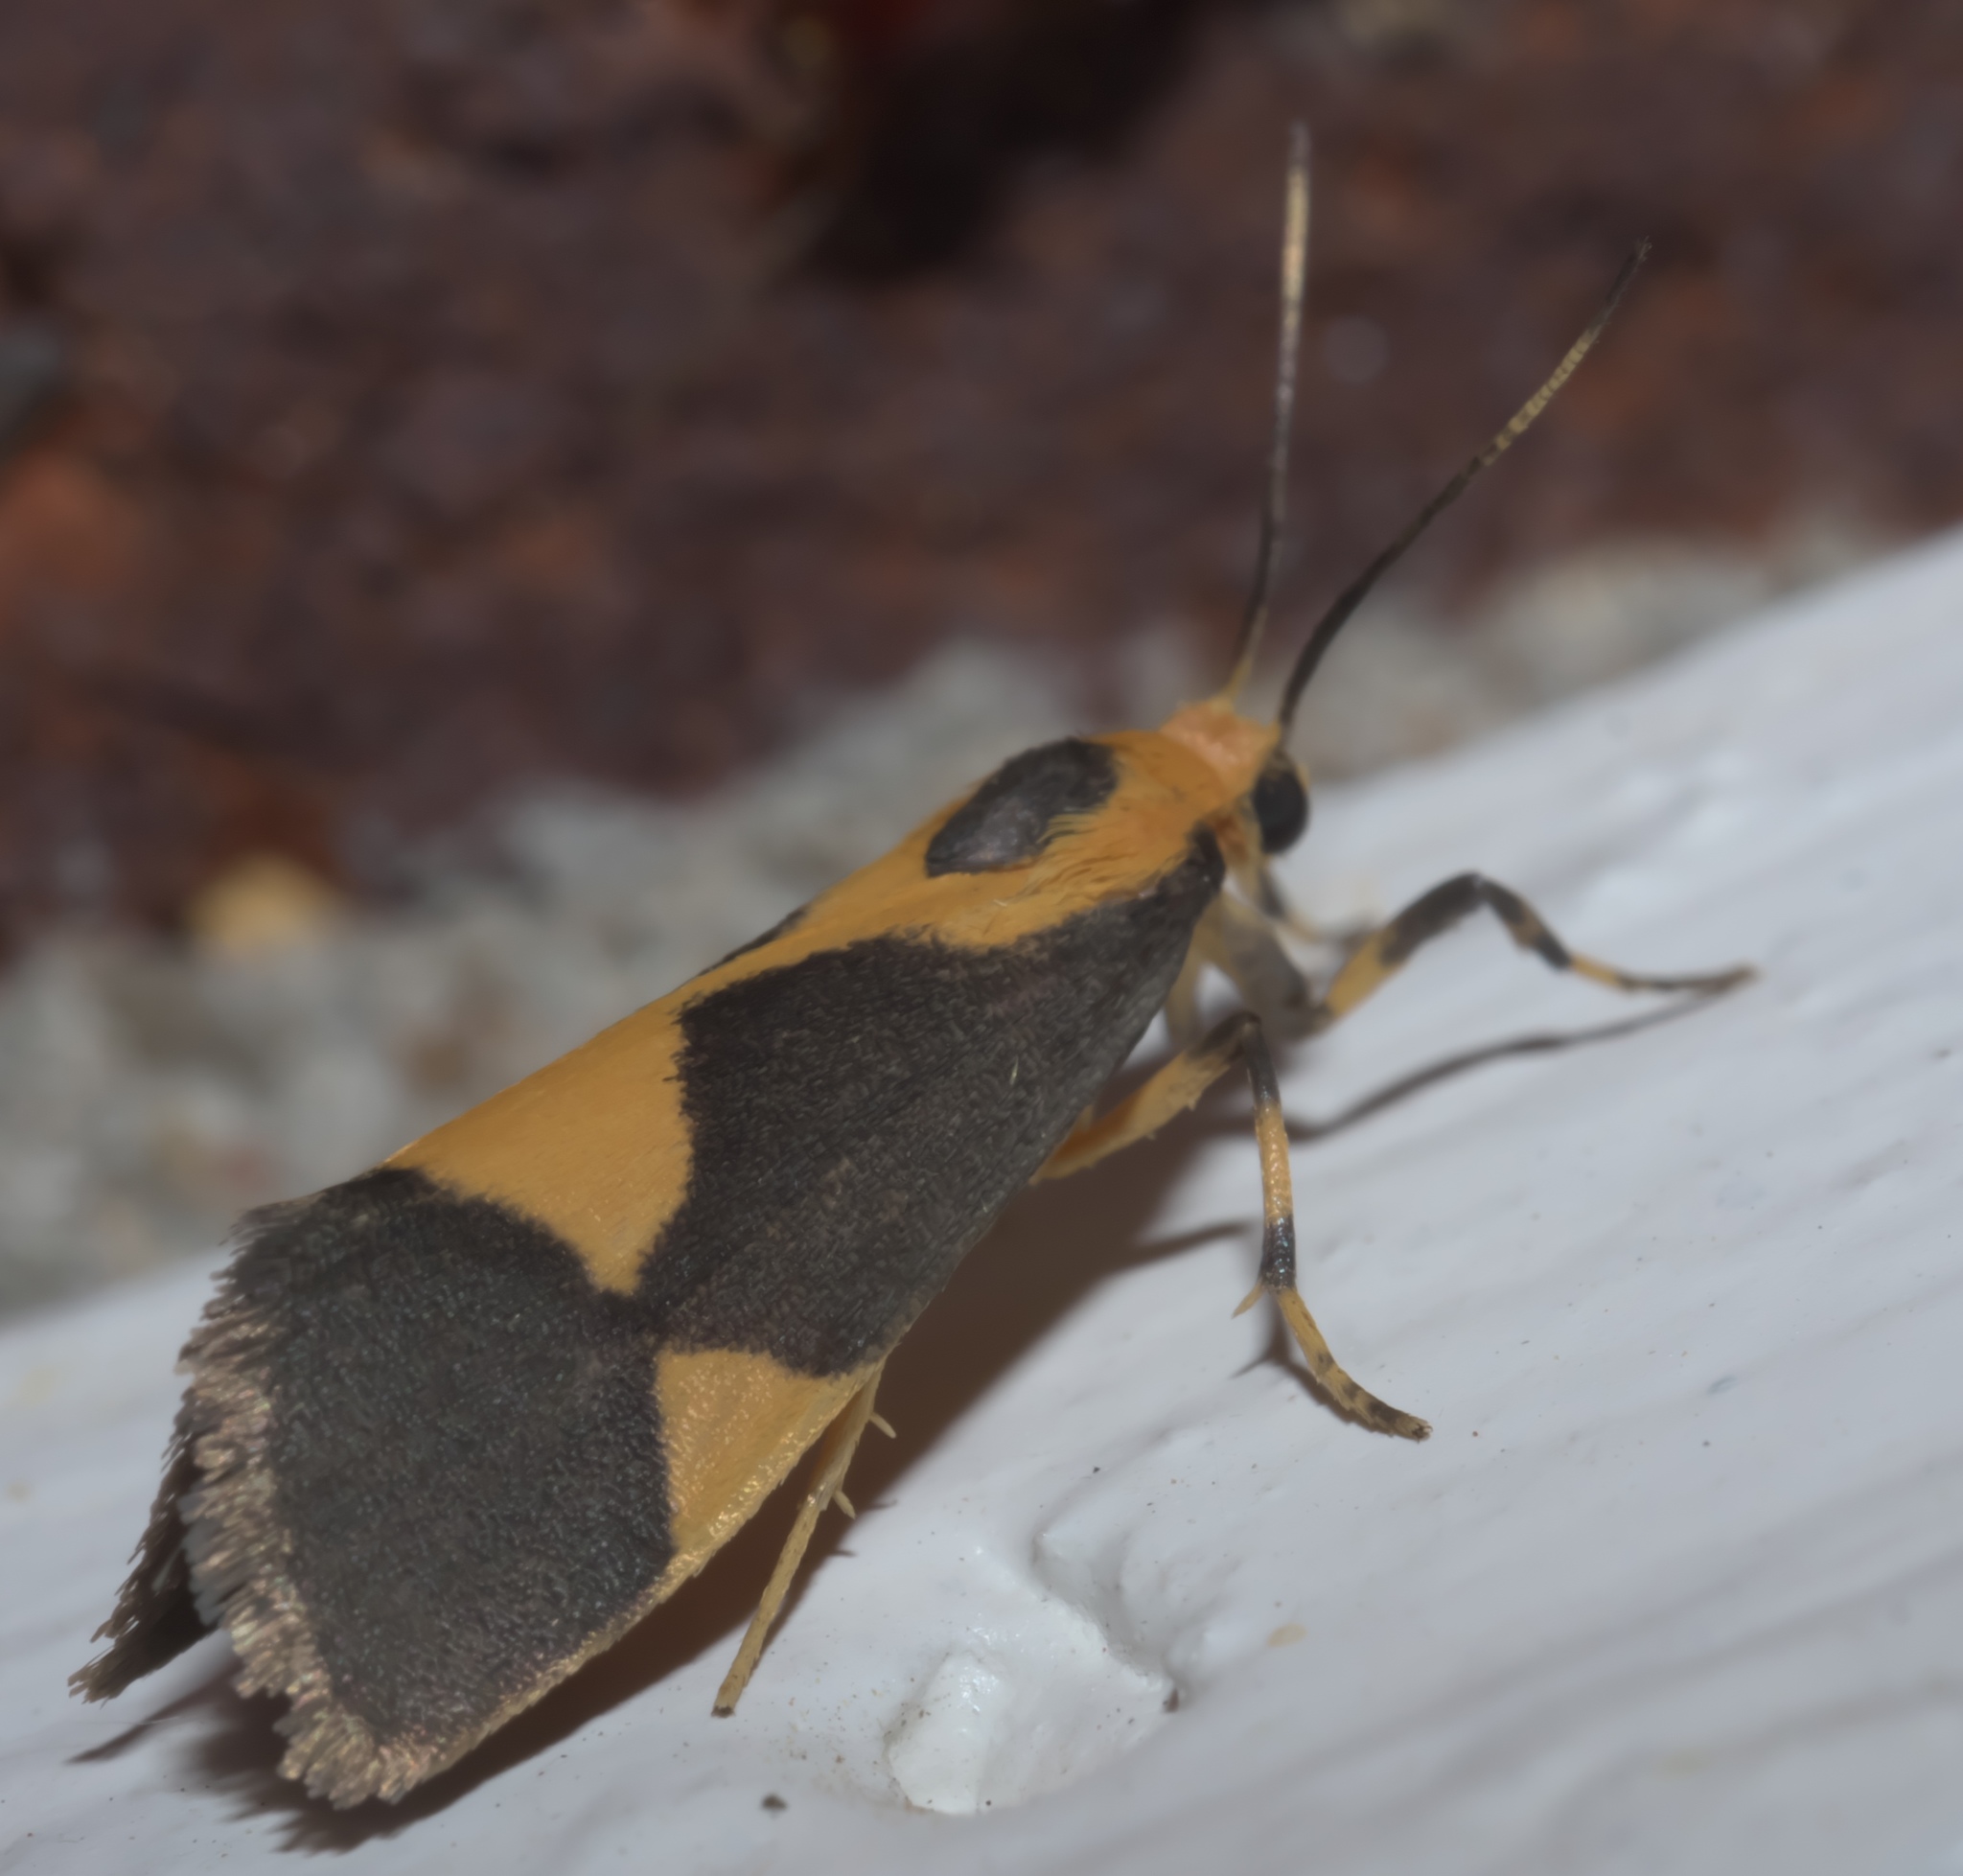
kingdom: Animalia
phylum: Arthropoda
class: Insecta
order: Lepidoptera
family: Erebidae
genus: Cisthene
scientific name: Cisthene unifascia
